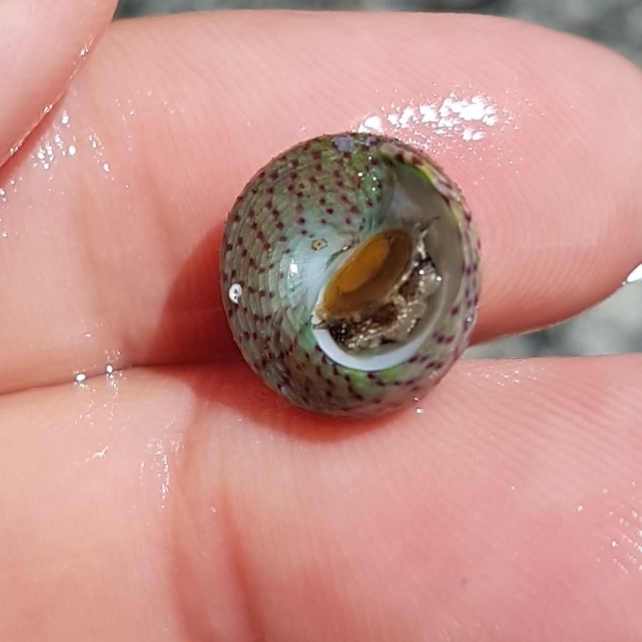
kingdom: Animalia
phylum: Mollusca
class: Gastropoda
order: Trochida
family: Trochidae
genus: Steromphala
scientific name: Steromphala divaricata
